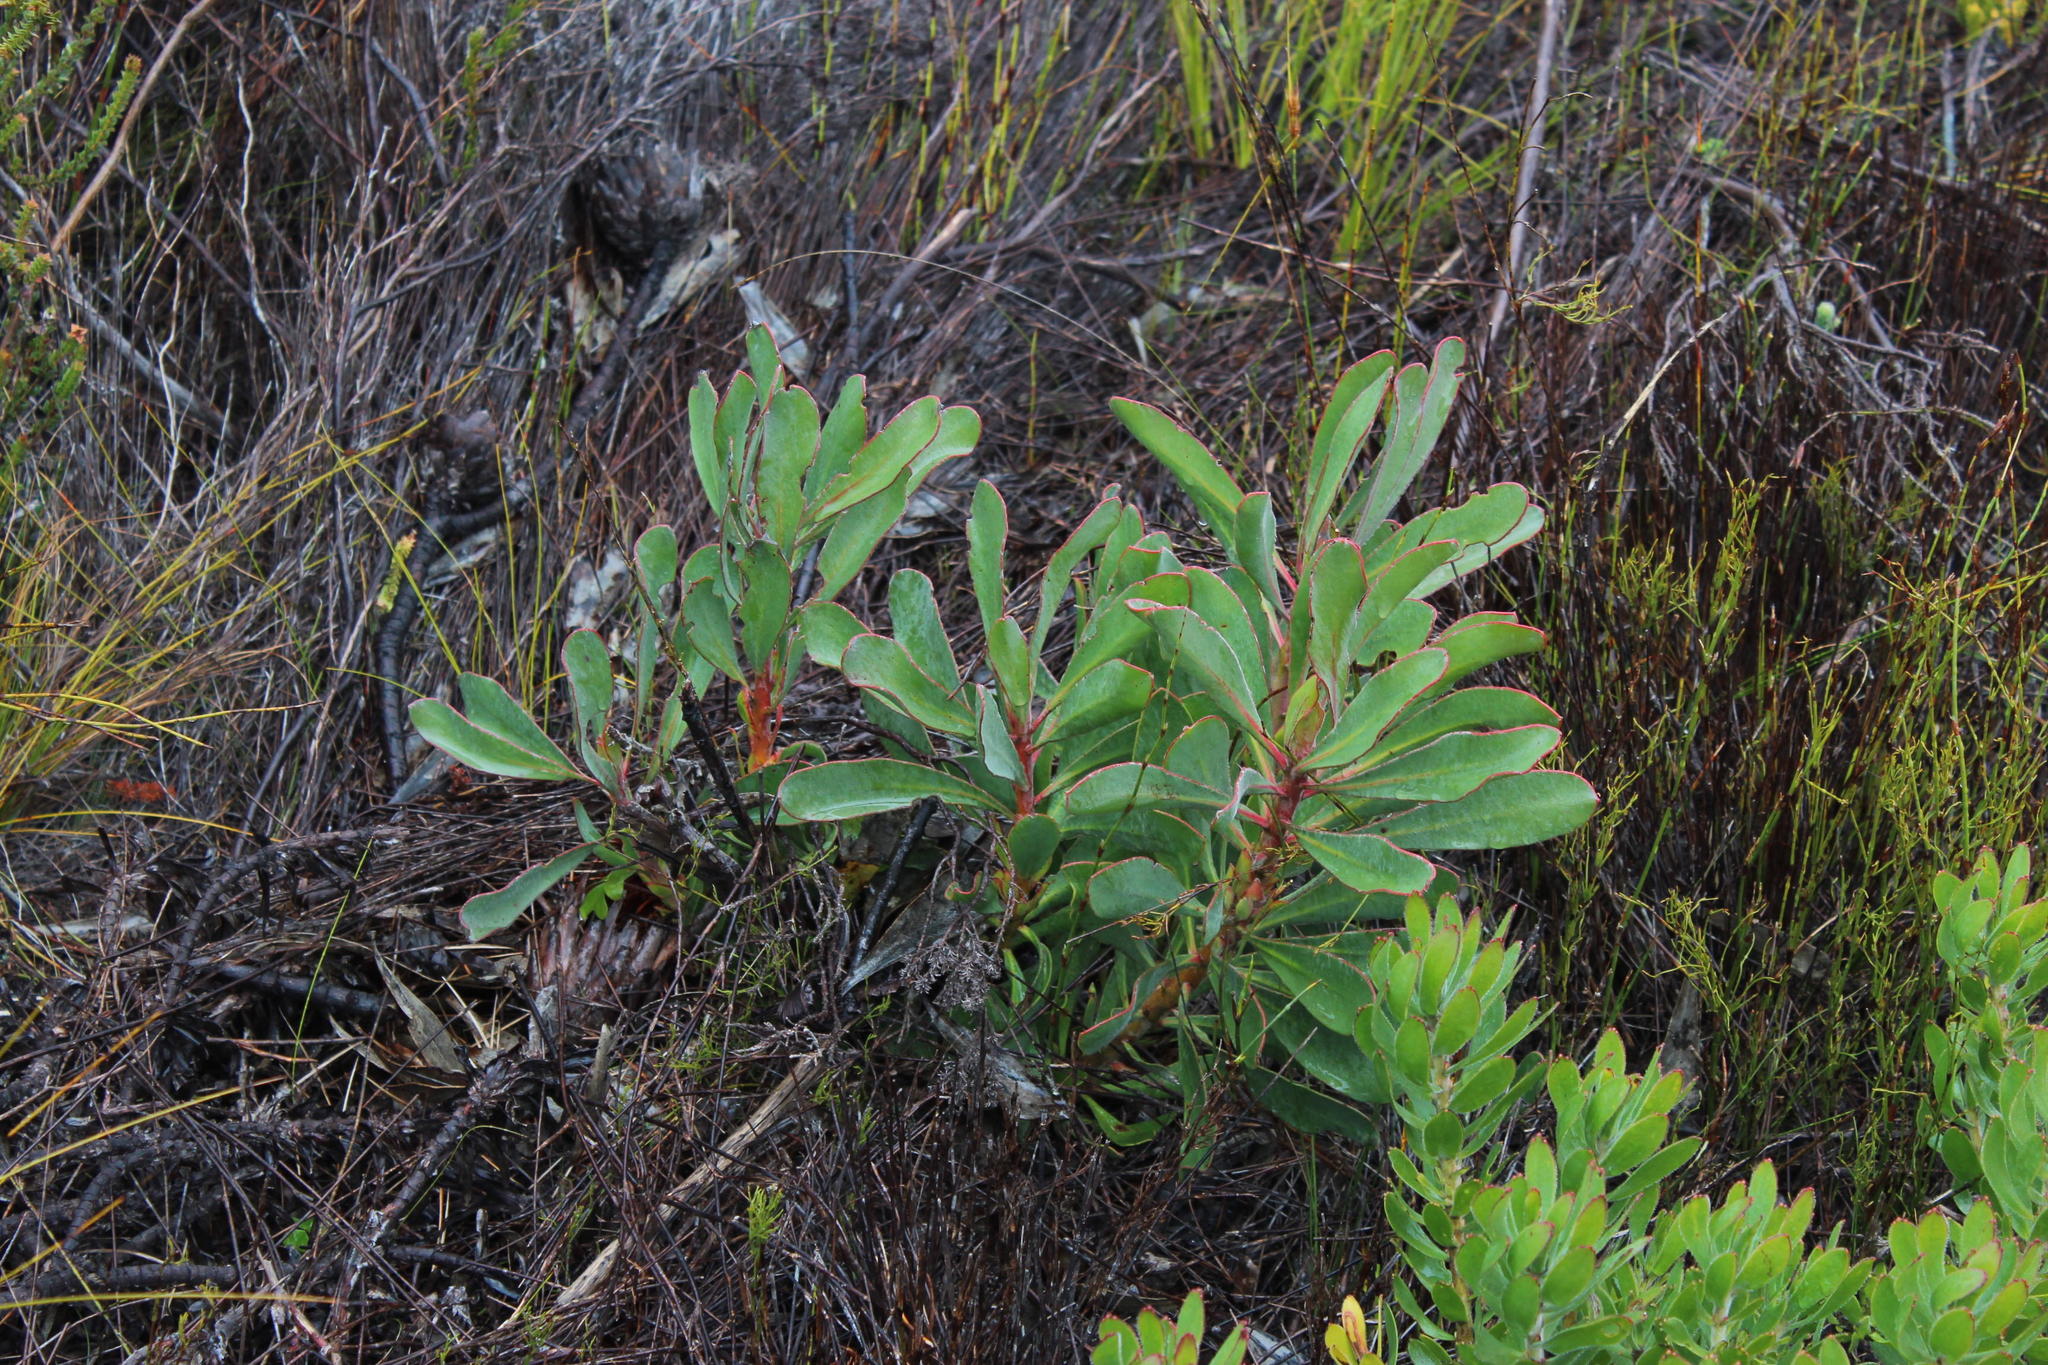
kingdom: Plantae
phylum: Tracheophyta
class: Magnoliopsida
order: Proteales
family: Proteaceae
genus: Protea
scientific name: Protea speciosa
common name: Brown-beard sugarbush
